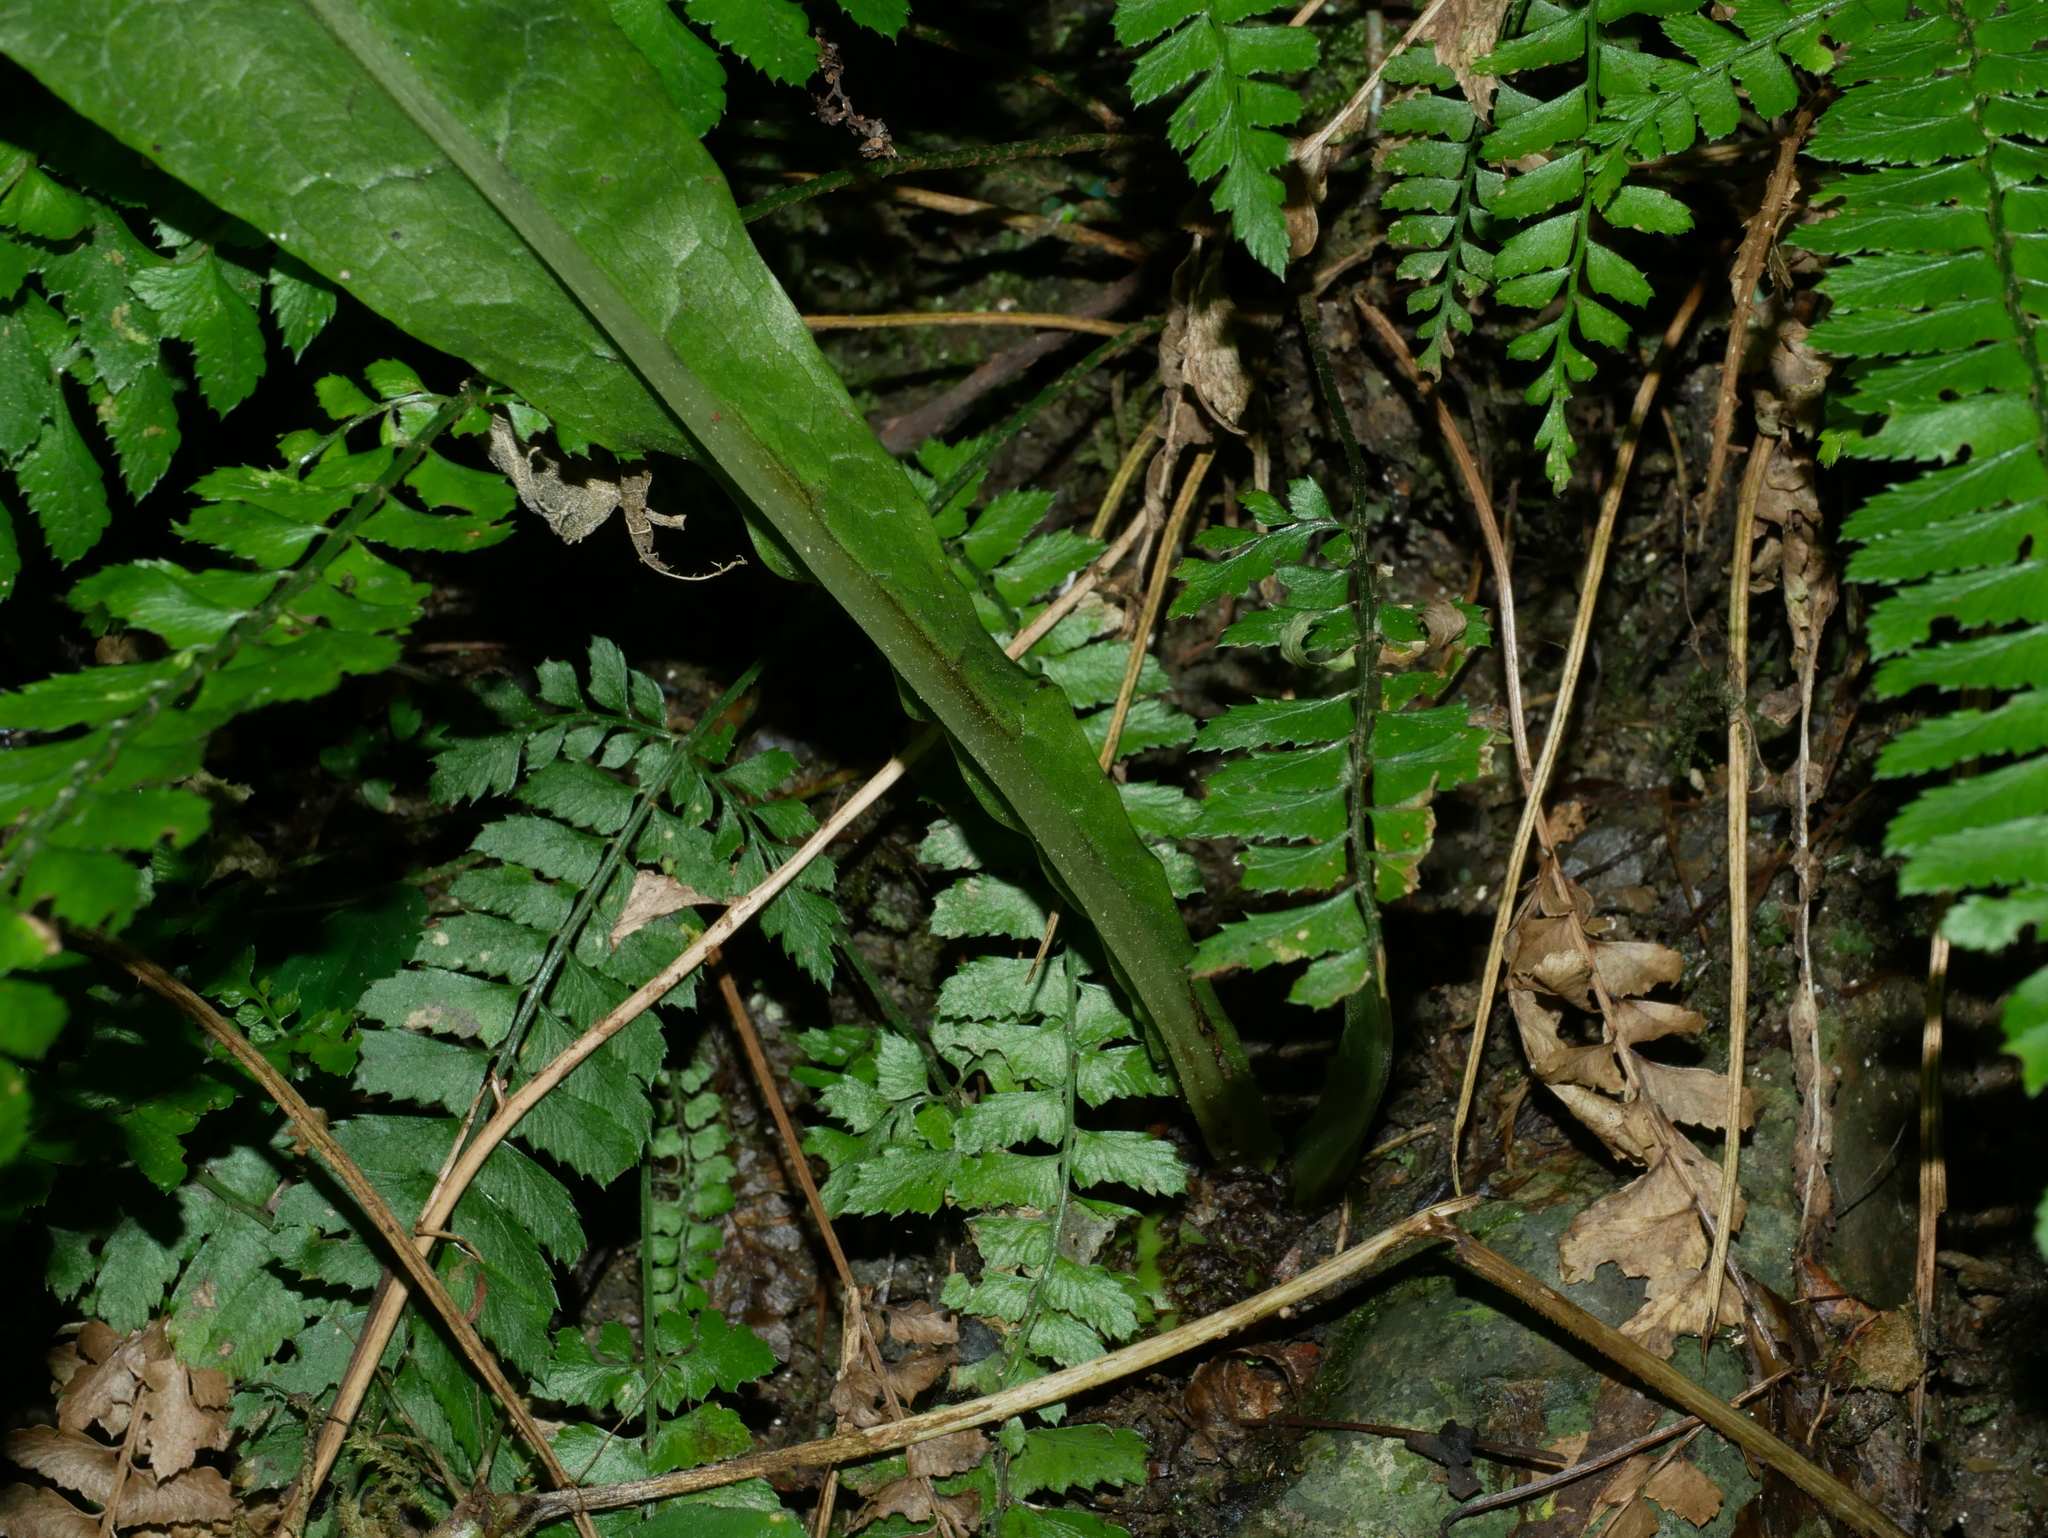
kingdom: Plantae
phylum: Tracheophyta
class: Polypodiopsida
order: Polypodiales
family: Polypodiaceae
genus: Bosmania
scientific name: Bosmania membranacea
